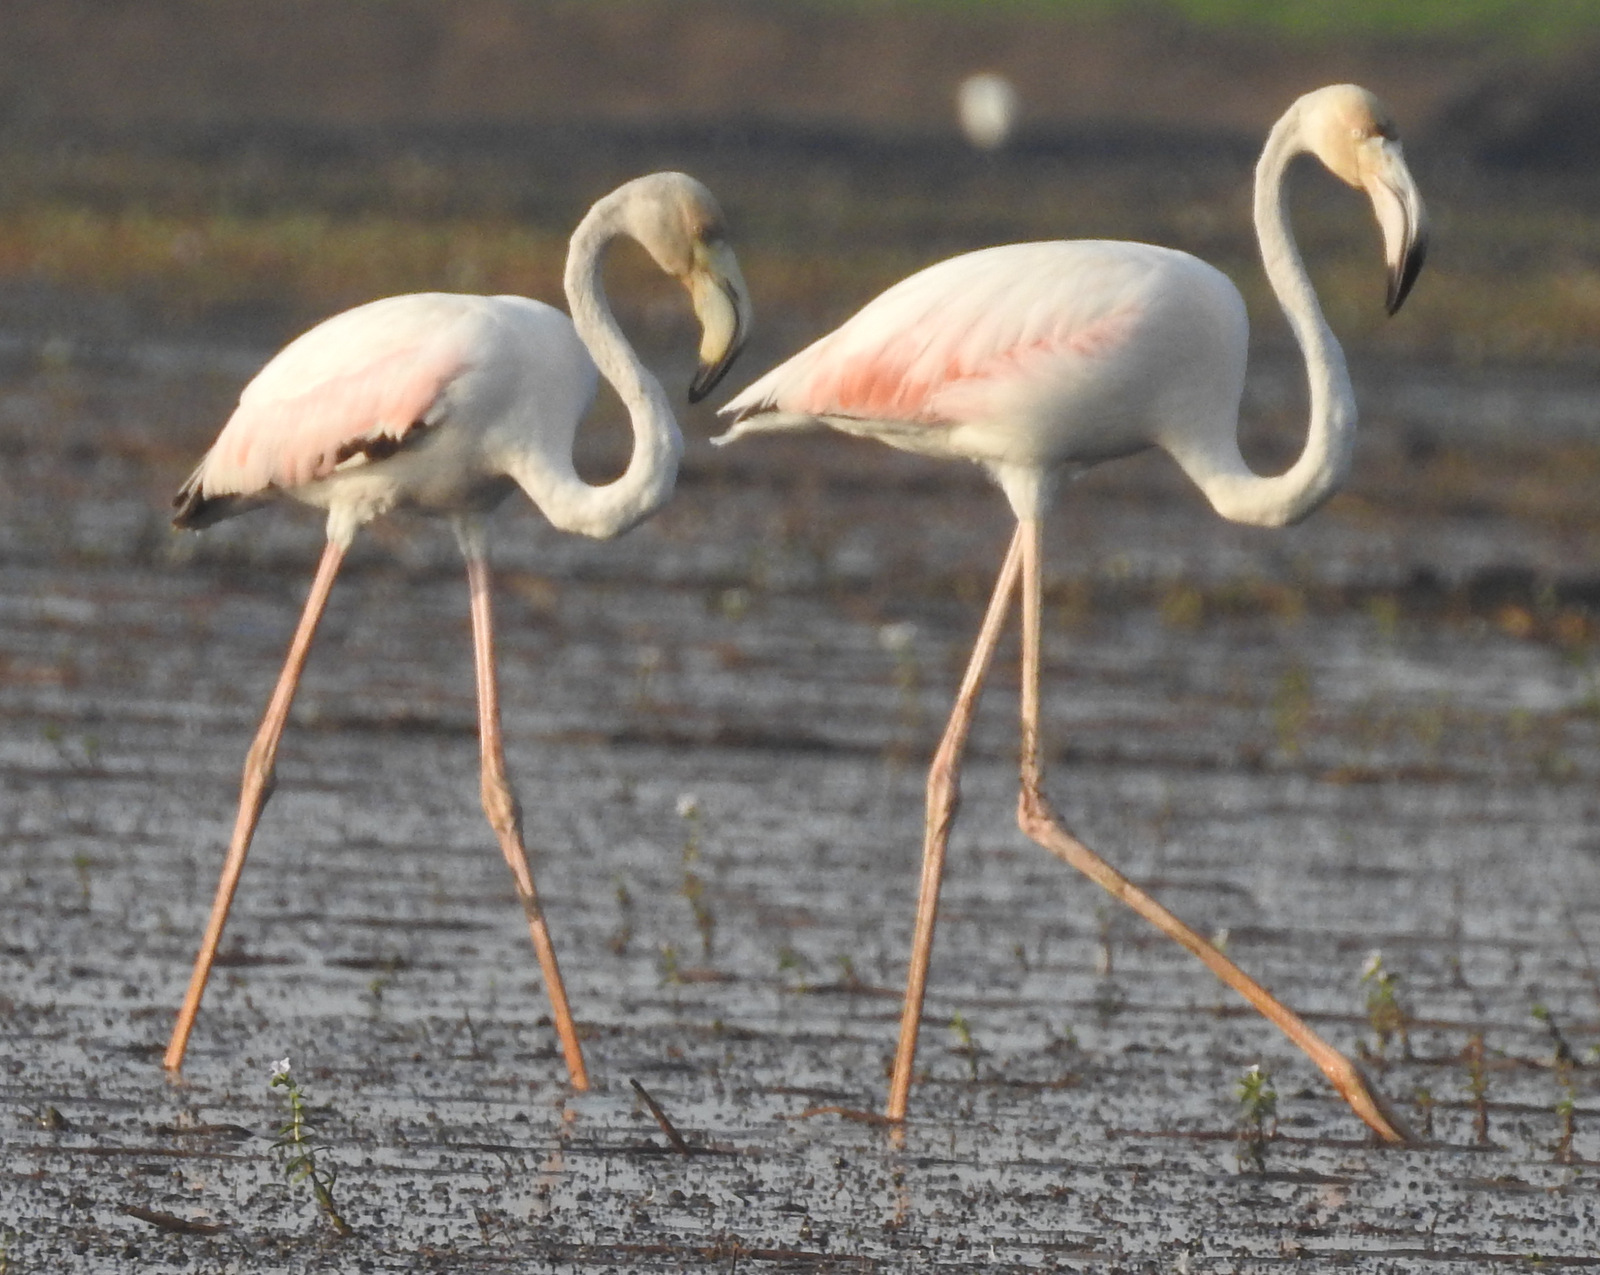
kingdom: Animalia
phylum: Chordata
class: Aves
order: Phoenicopteriformes
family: Phoenicopteridae
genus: Phoenicopterus
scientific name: Phoenicopterus roseus
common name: Greater flamingo
